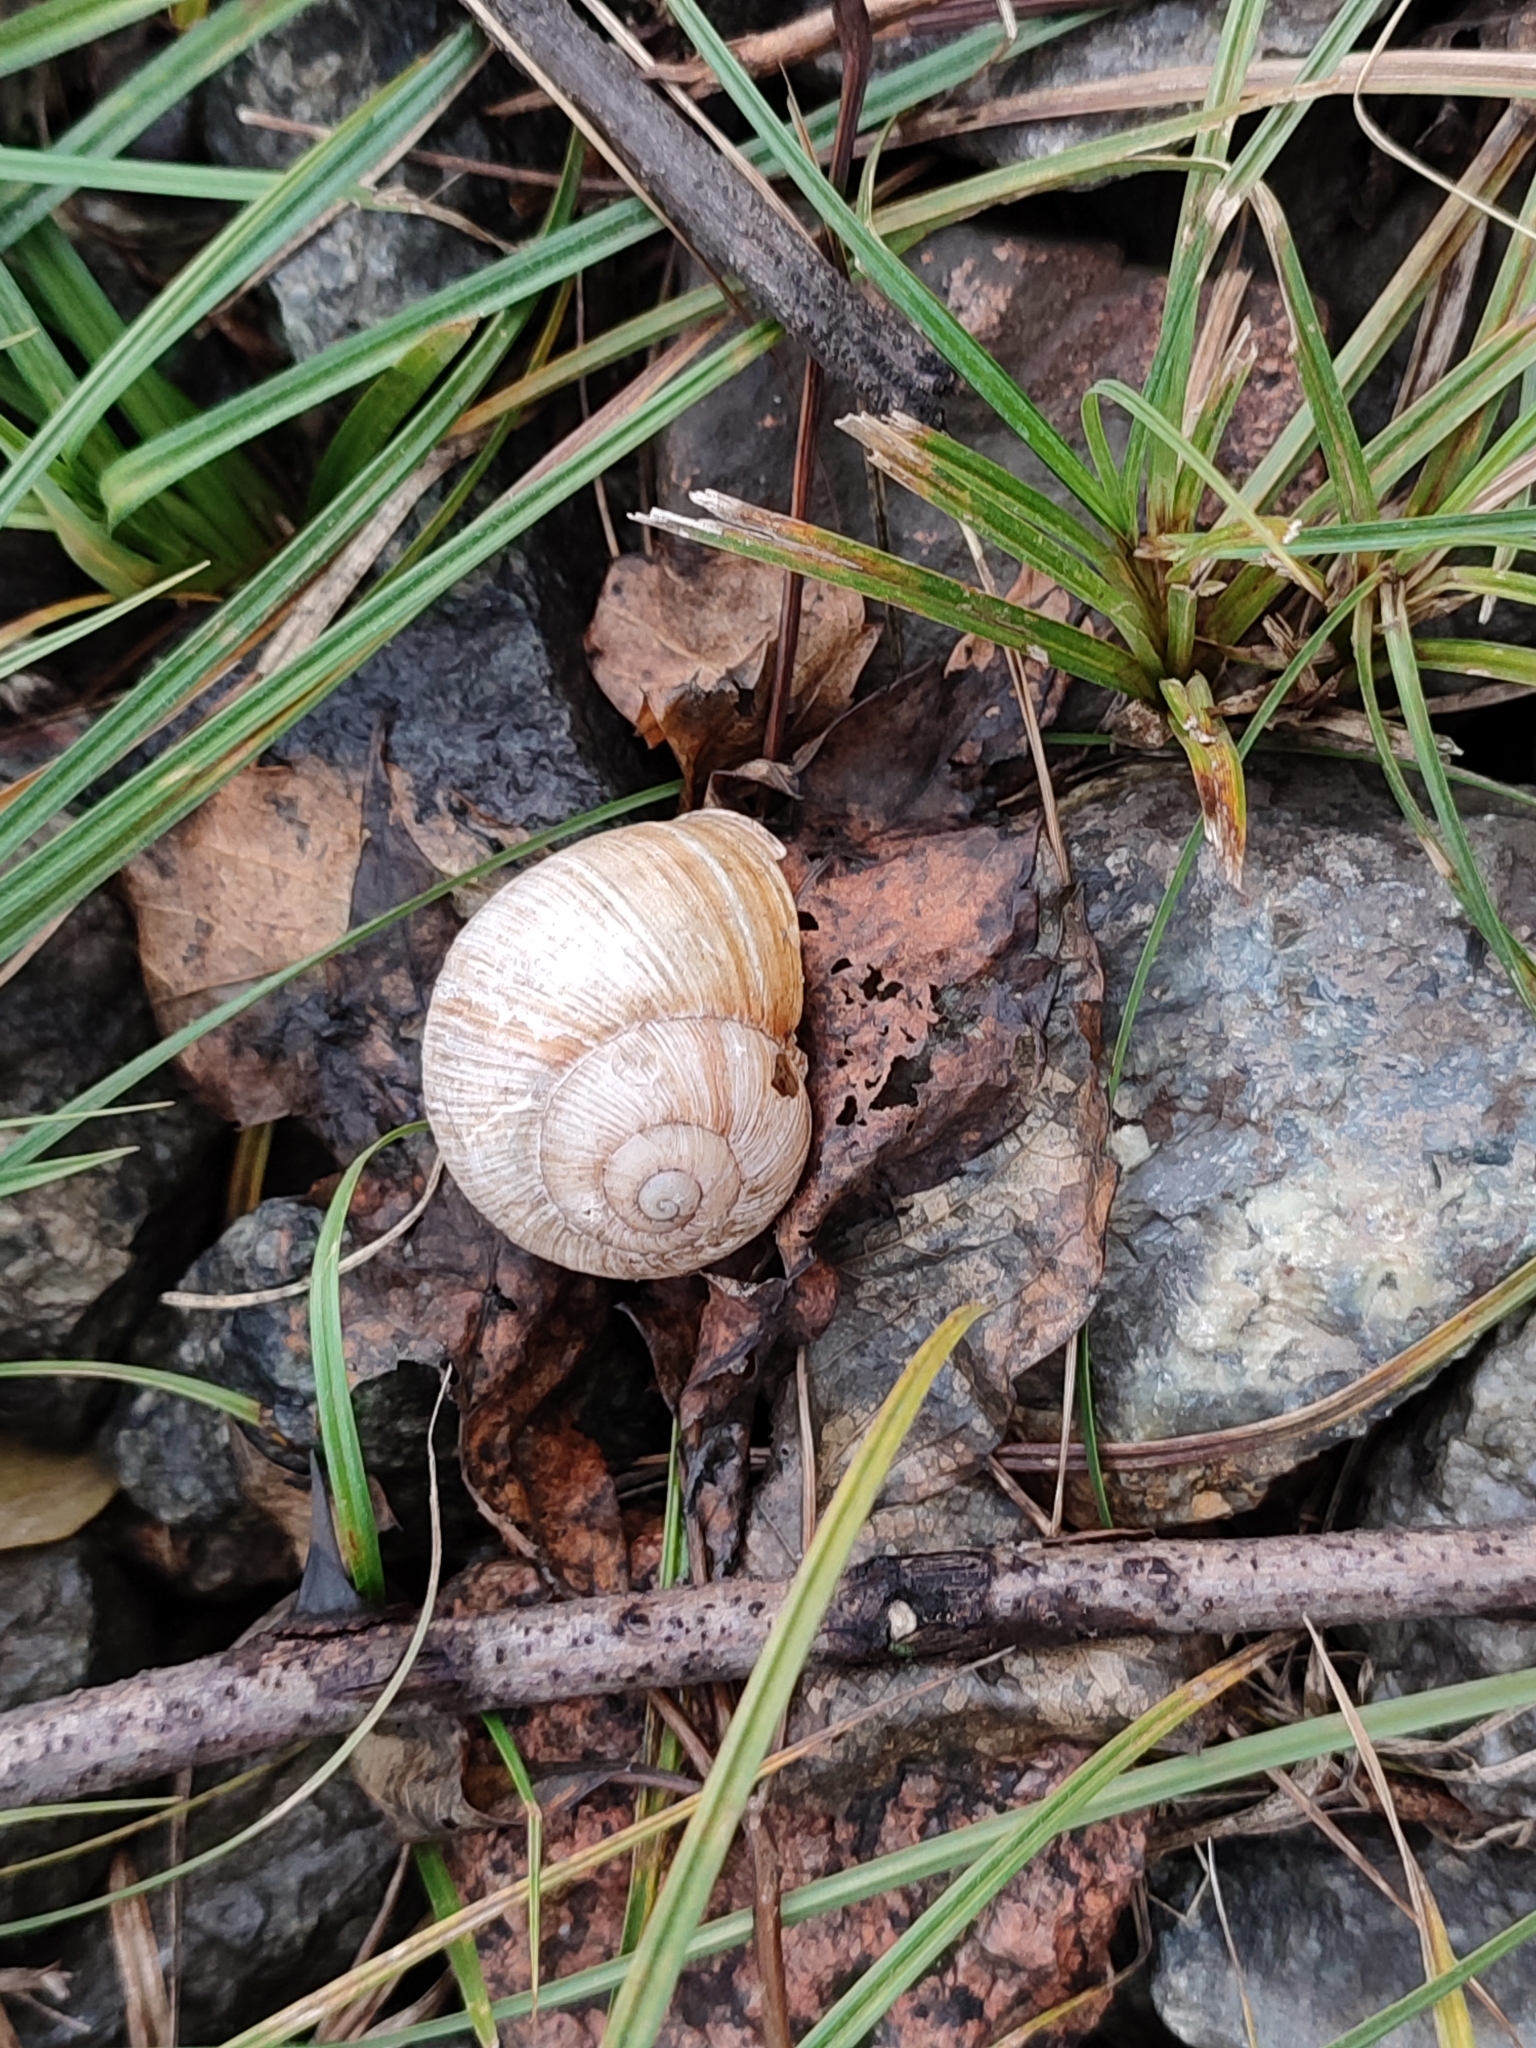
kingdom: Animalia
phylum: Mollusca
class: Gastropoda
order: Stylommatophora
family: Helicidae
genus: Helix
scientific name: Helix pomatia
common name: Roman snail
